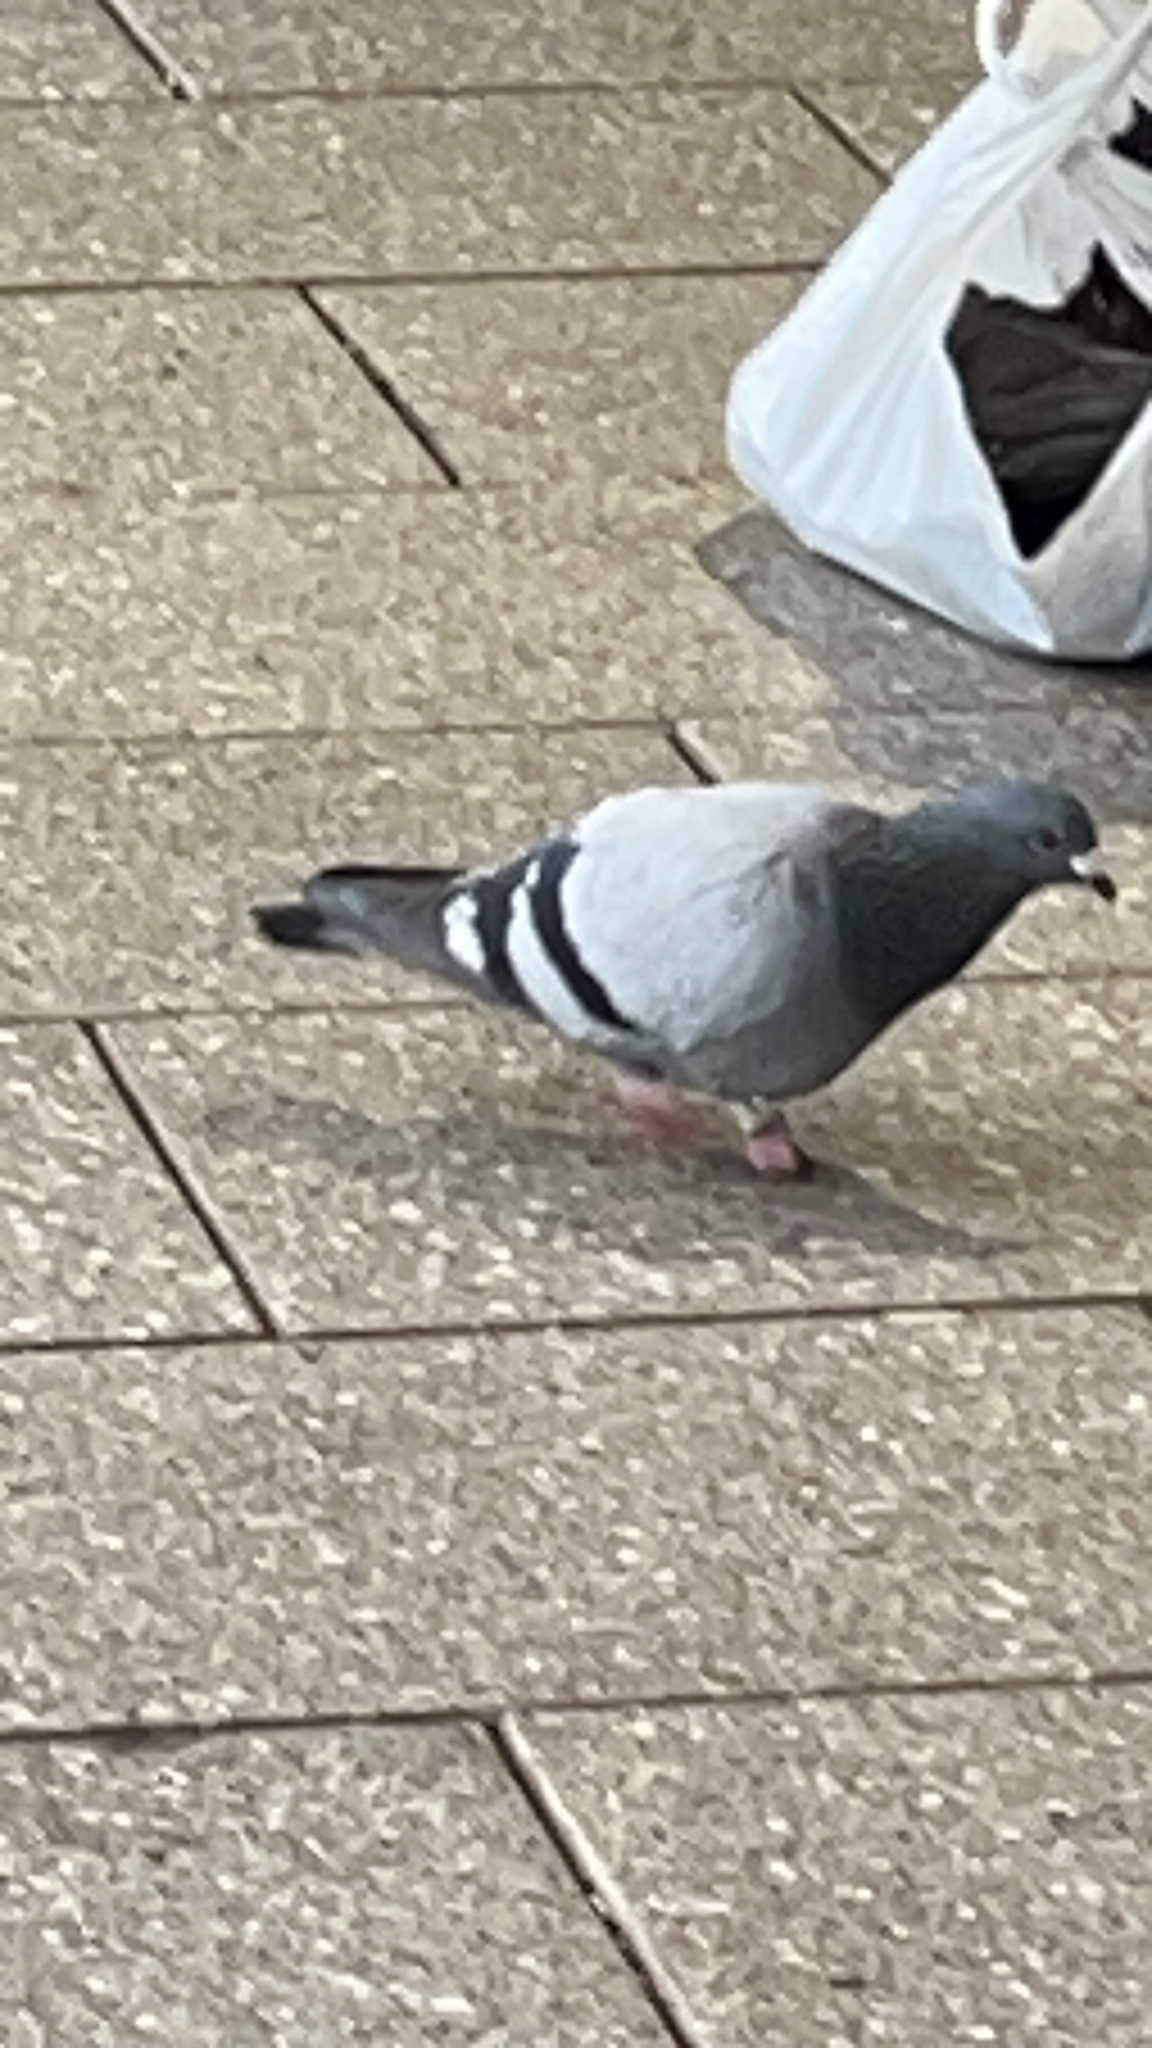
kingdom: Animalia
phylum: Chordata
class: Aves
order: Columbiformes
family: Columbidae
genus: Columba
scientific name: Columba livia
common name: Rock pigeon
